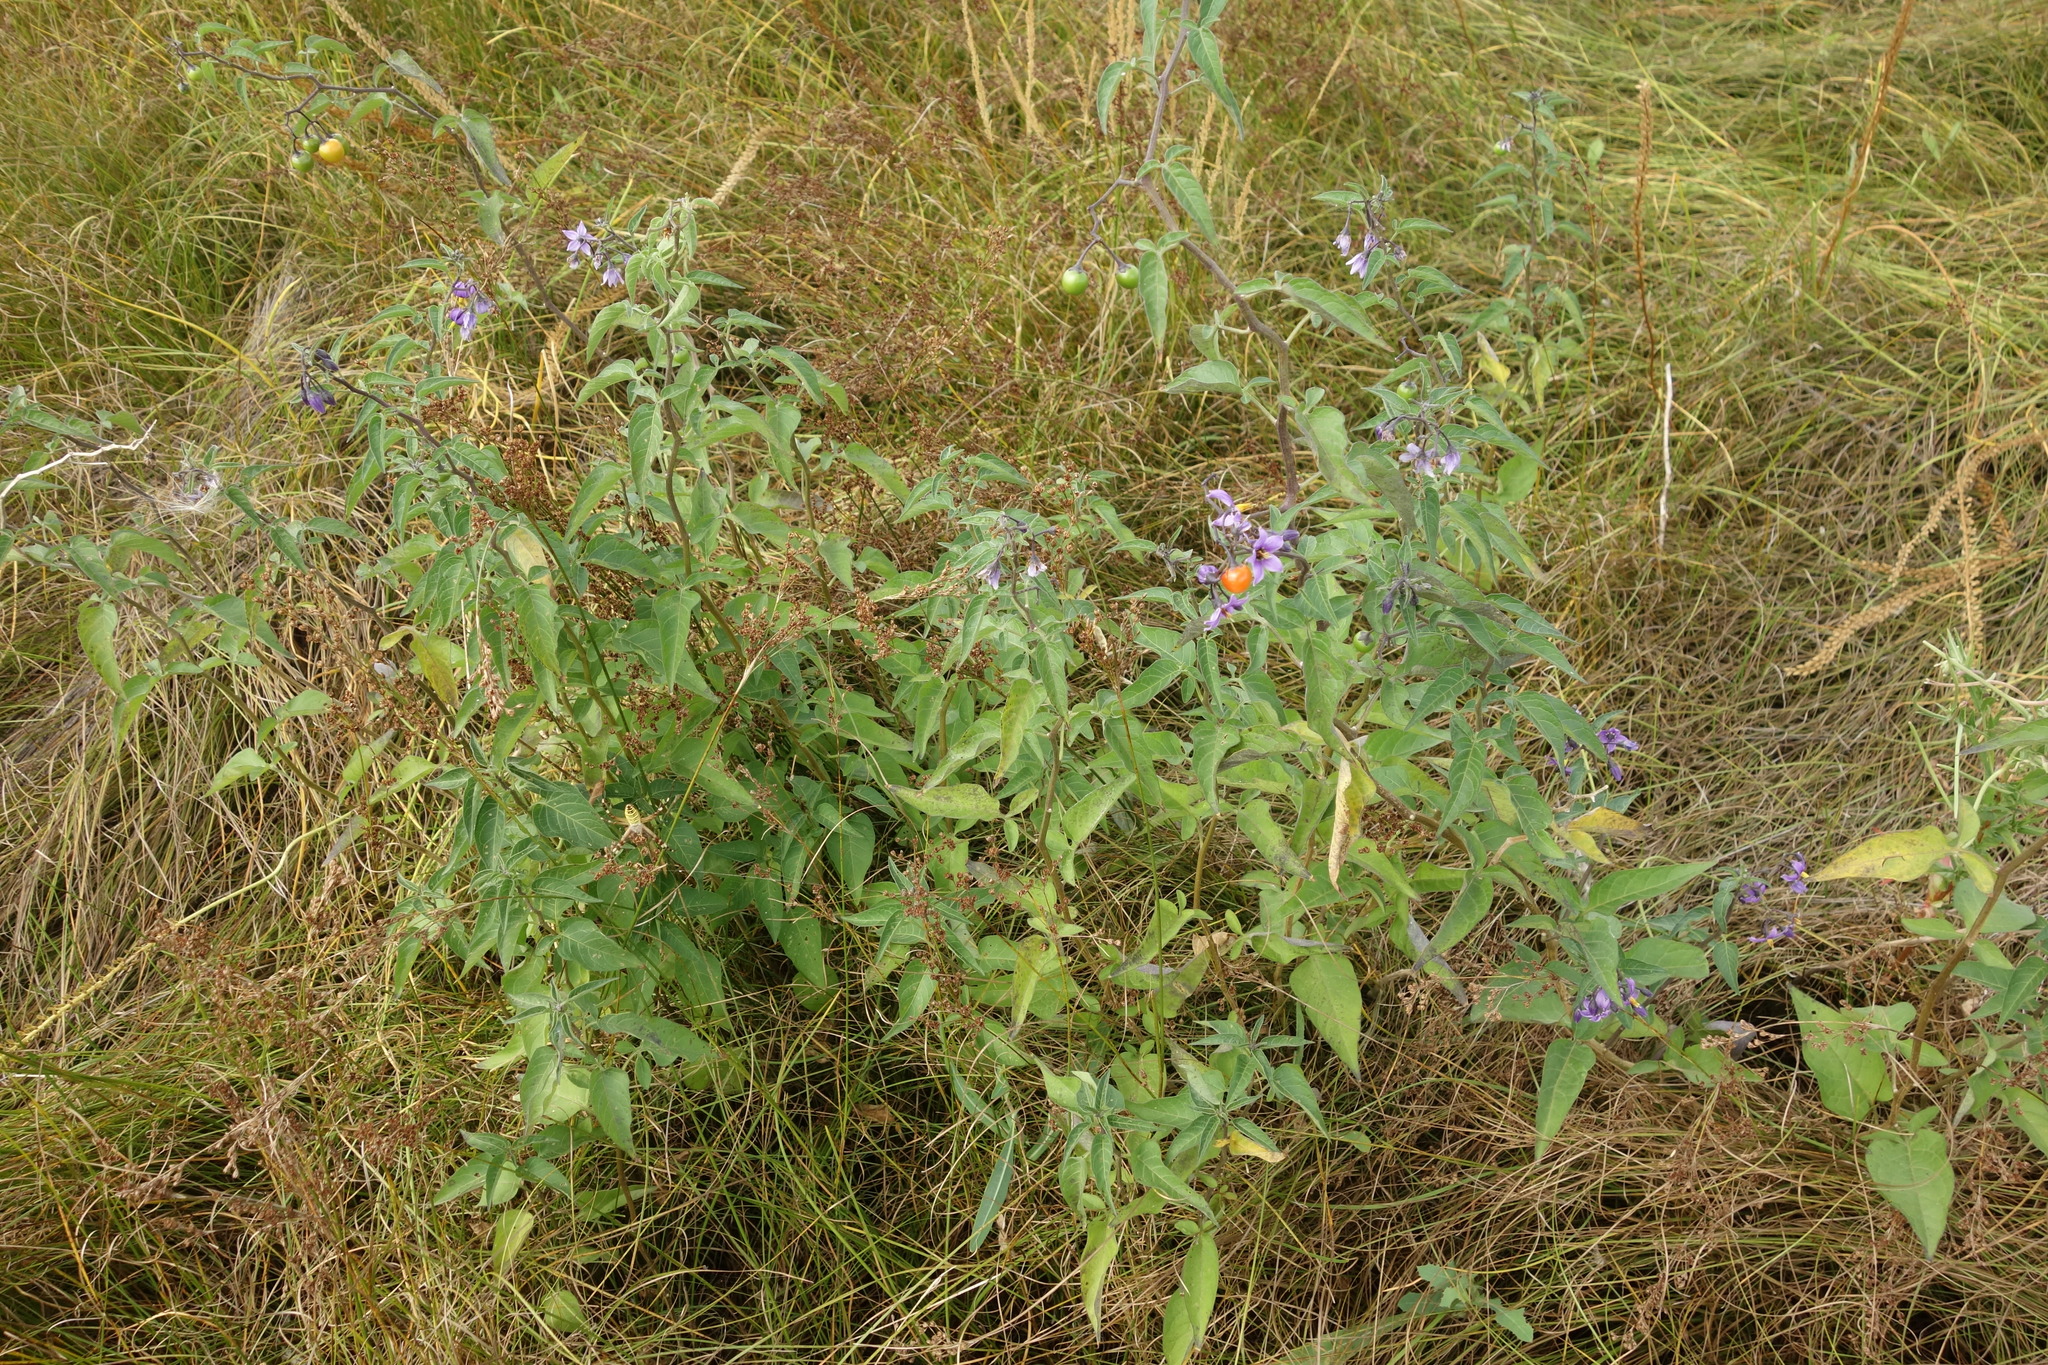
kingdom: Plantae
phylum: Tracheophyta
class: Magnoliopsida
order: Solanales
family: Solanaceae
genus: Solanum
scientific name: Solanum dulcamara
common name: Climbing nightshade
